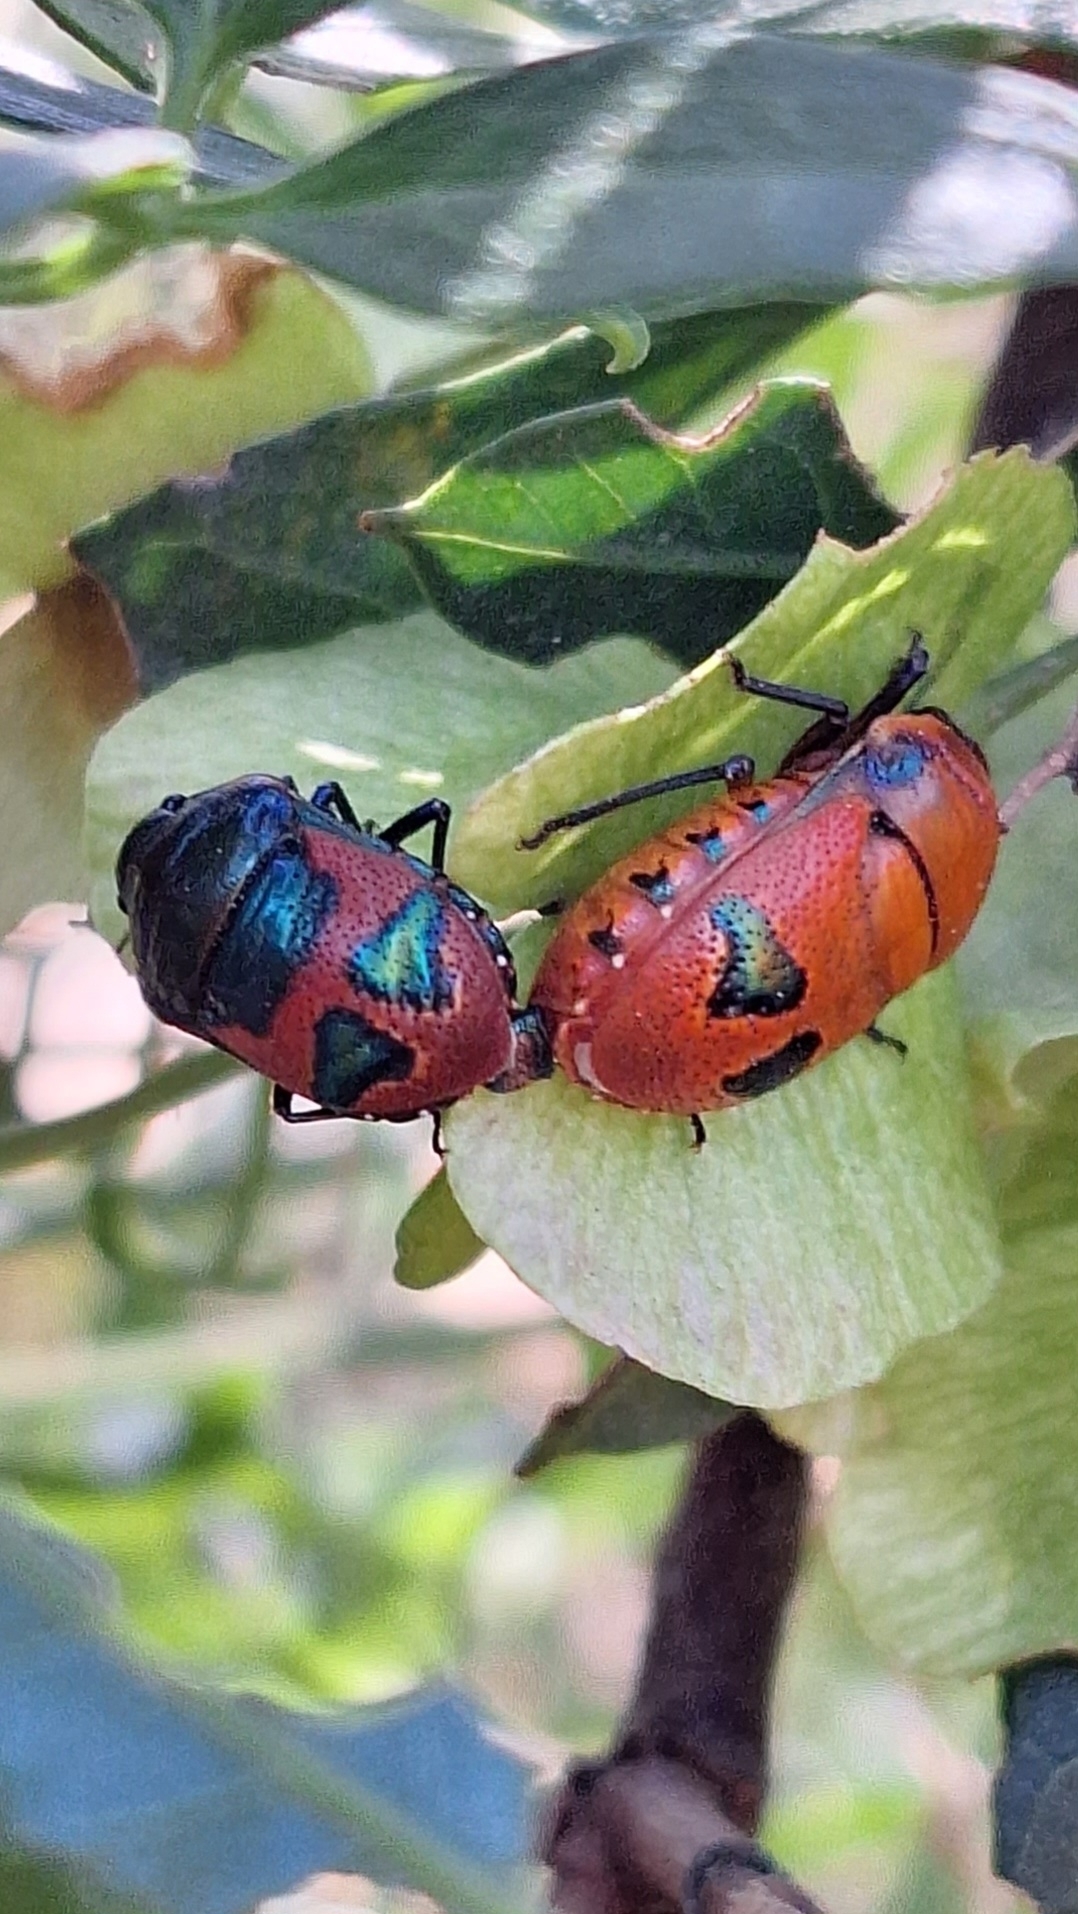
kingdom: Animalia
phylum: Arthropoda
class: Insecta
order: Hemiptera
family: Scutelleridae
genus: Choerocoris
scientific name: Choerocoris paganus
